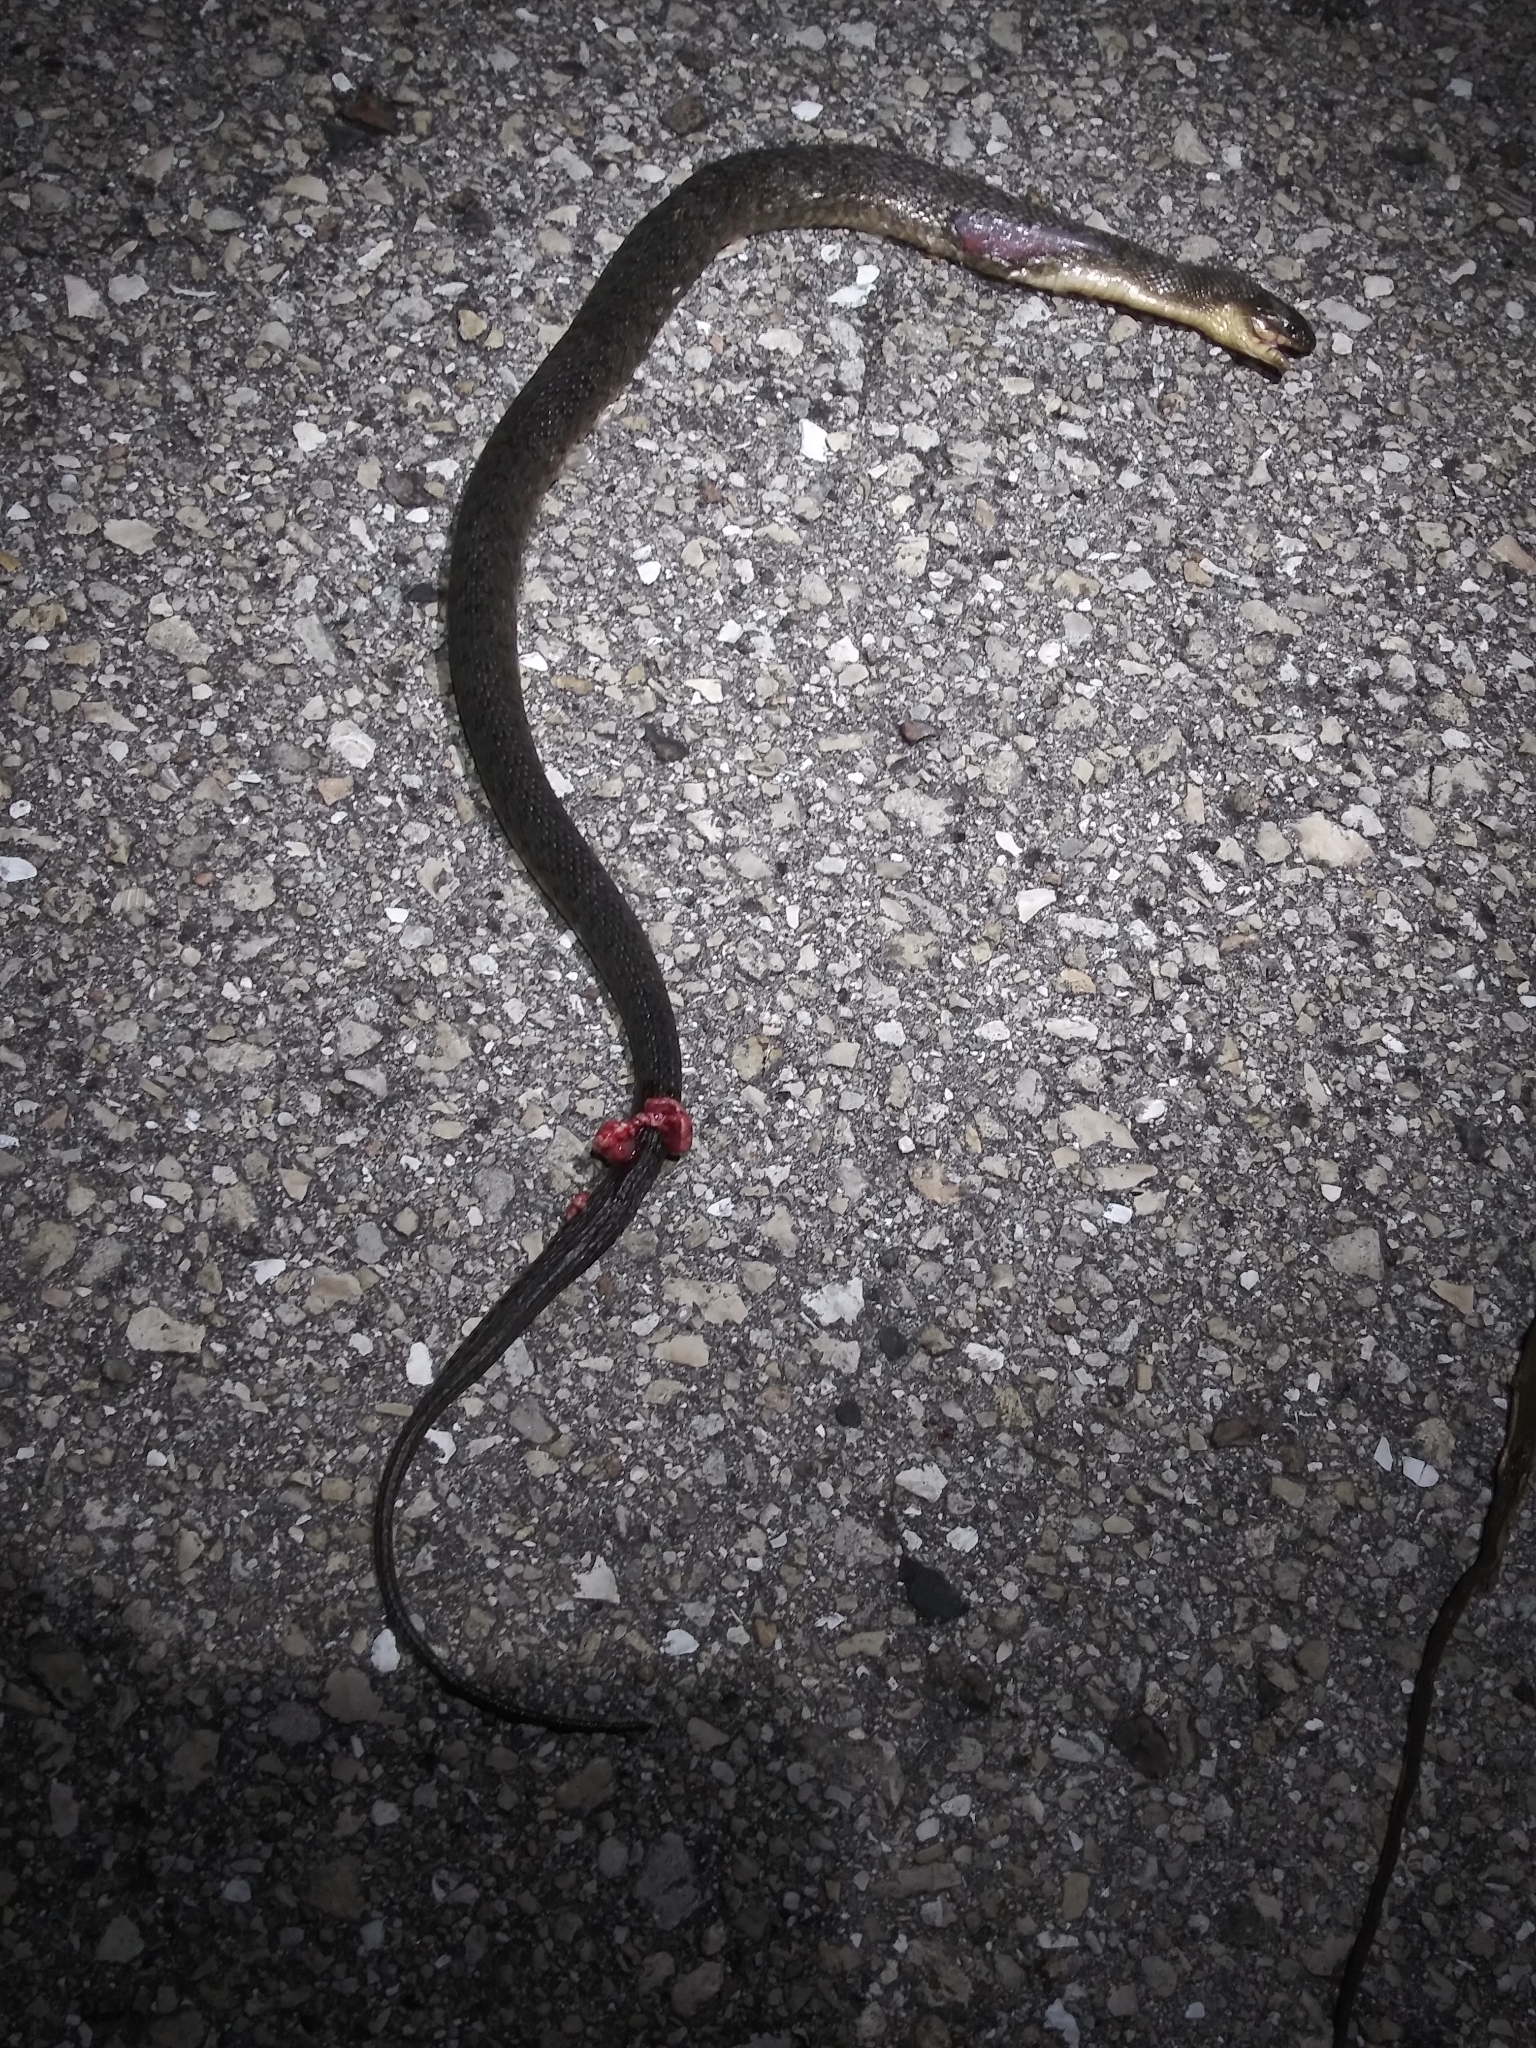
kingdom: Animalia
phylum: Chordata
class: Squamata
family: Colubridae
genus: Nerodia
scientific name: Nerodia floridana
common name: Florida green watersnake
